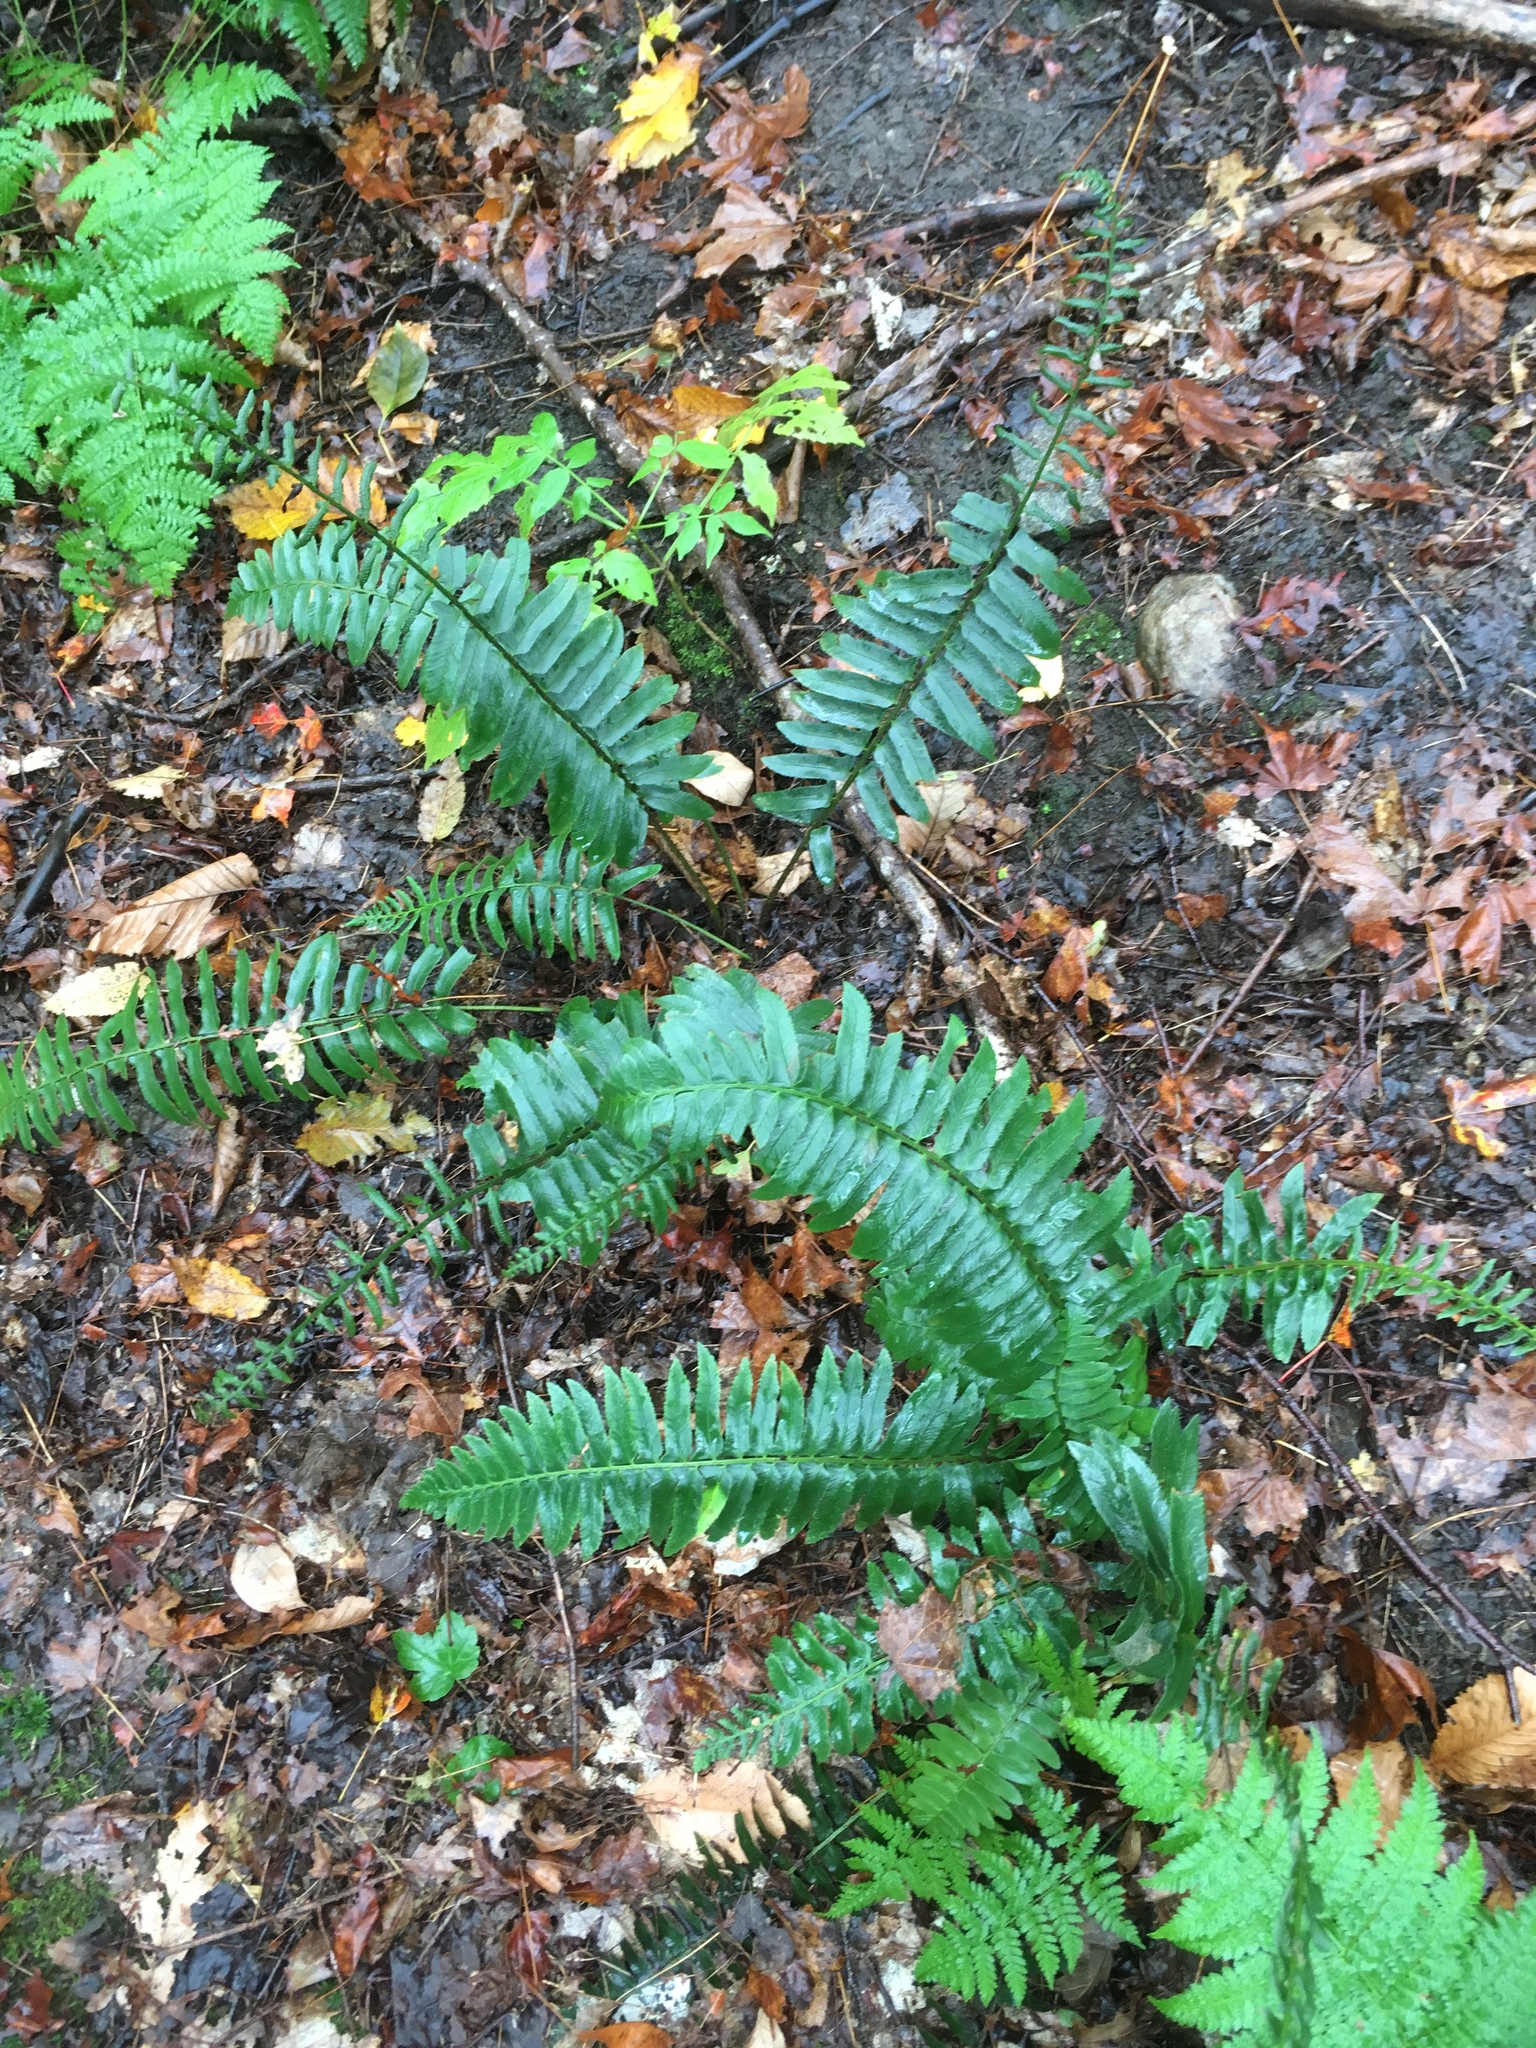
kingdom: Plantae
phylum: Tracheophyta
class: Polypodiopsida
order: Polypodiales
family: Dryopteridaceae
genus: Polystichum
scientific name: Polystichum acrostichoides
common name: Christmas fern
